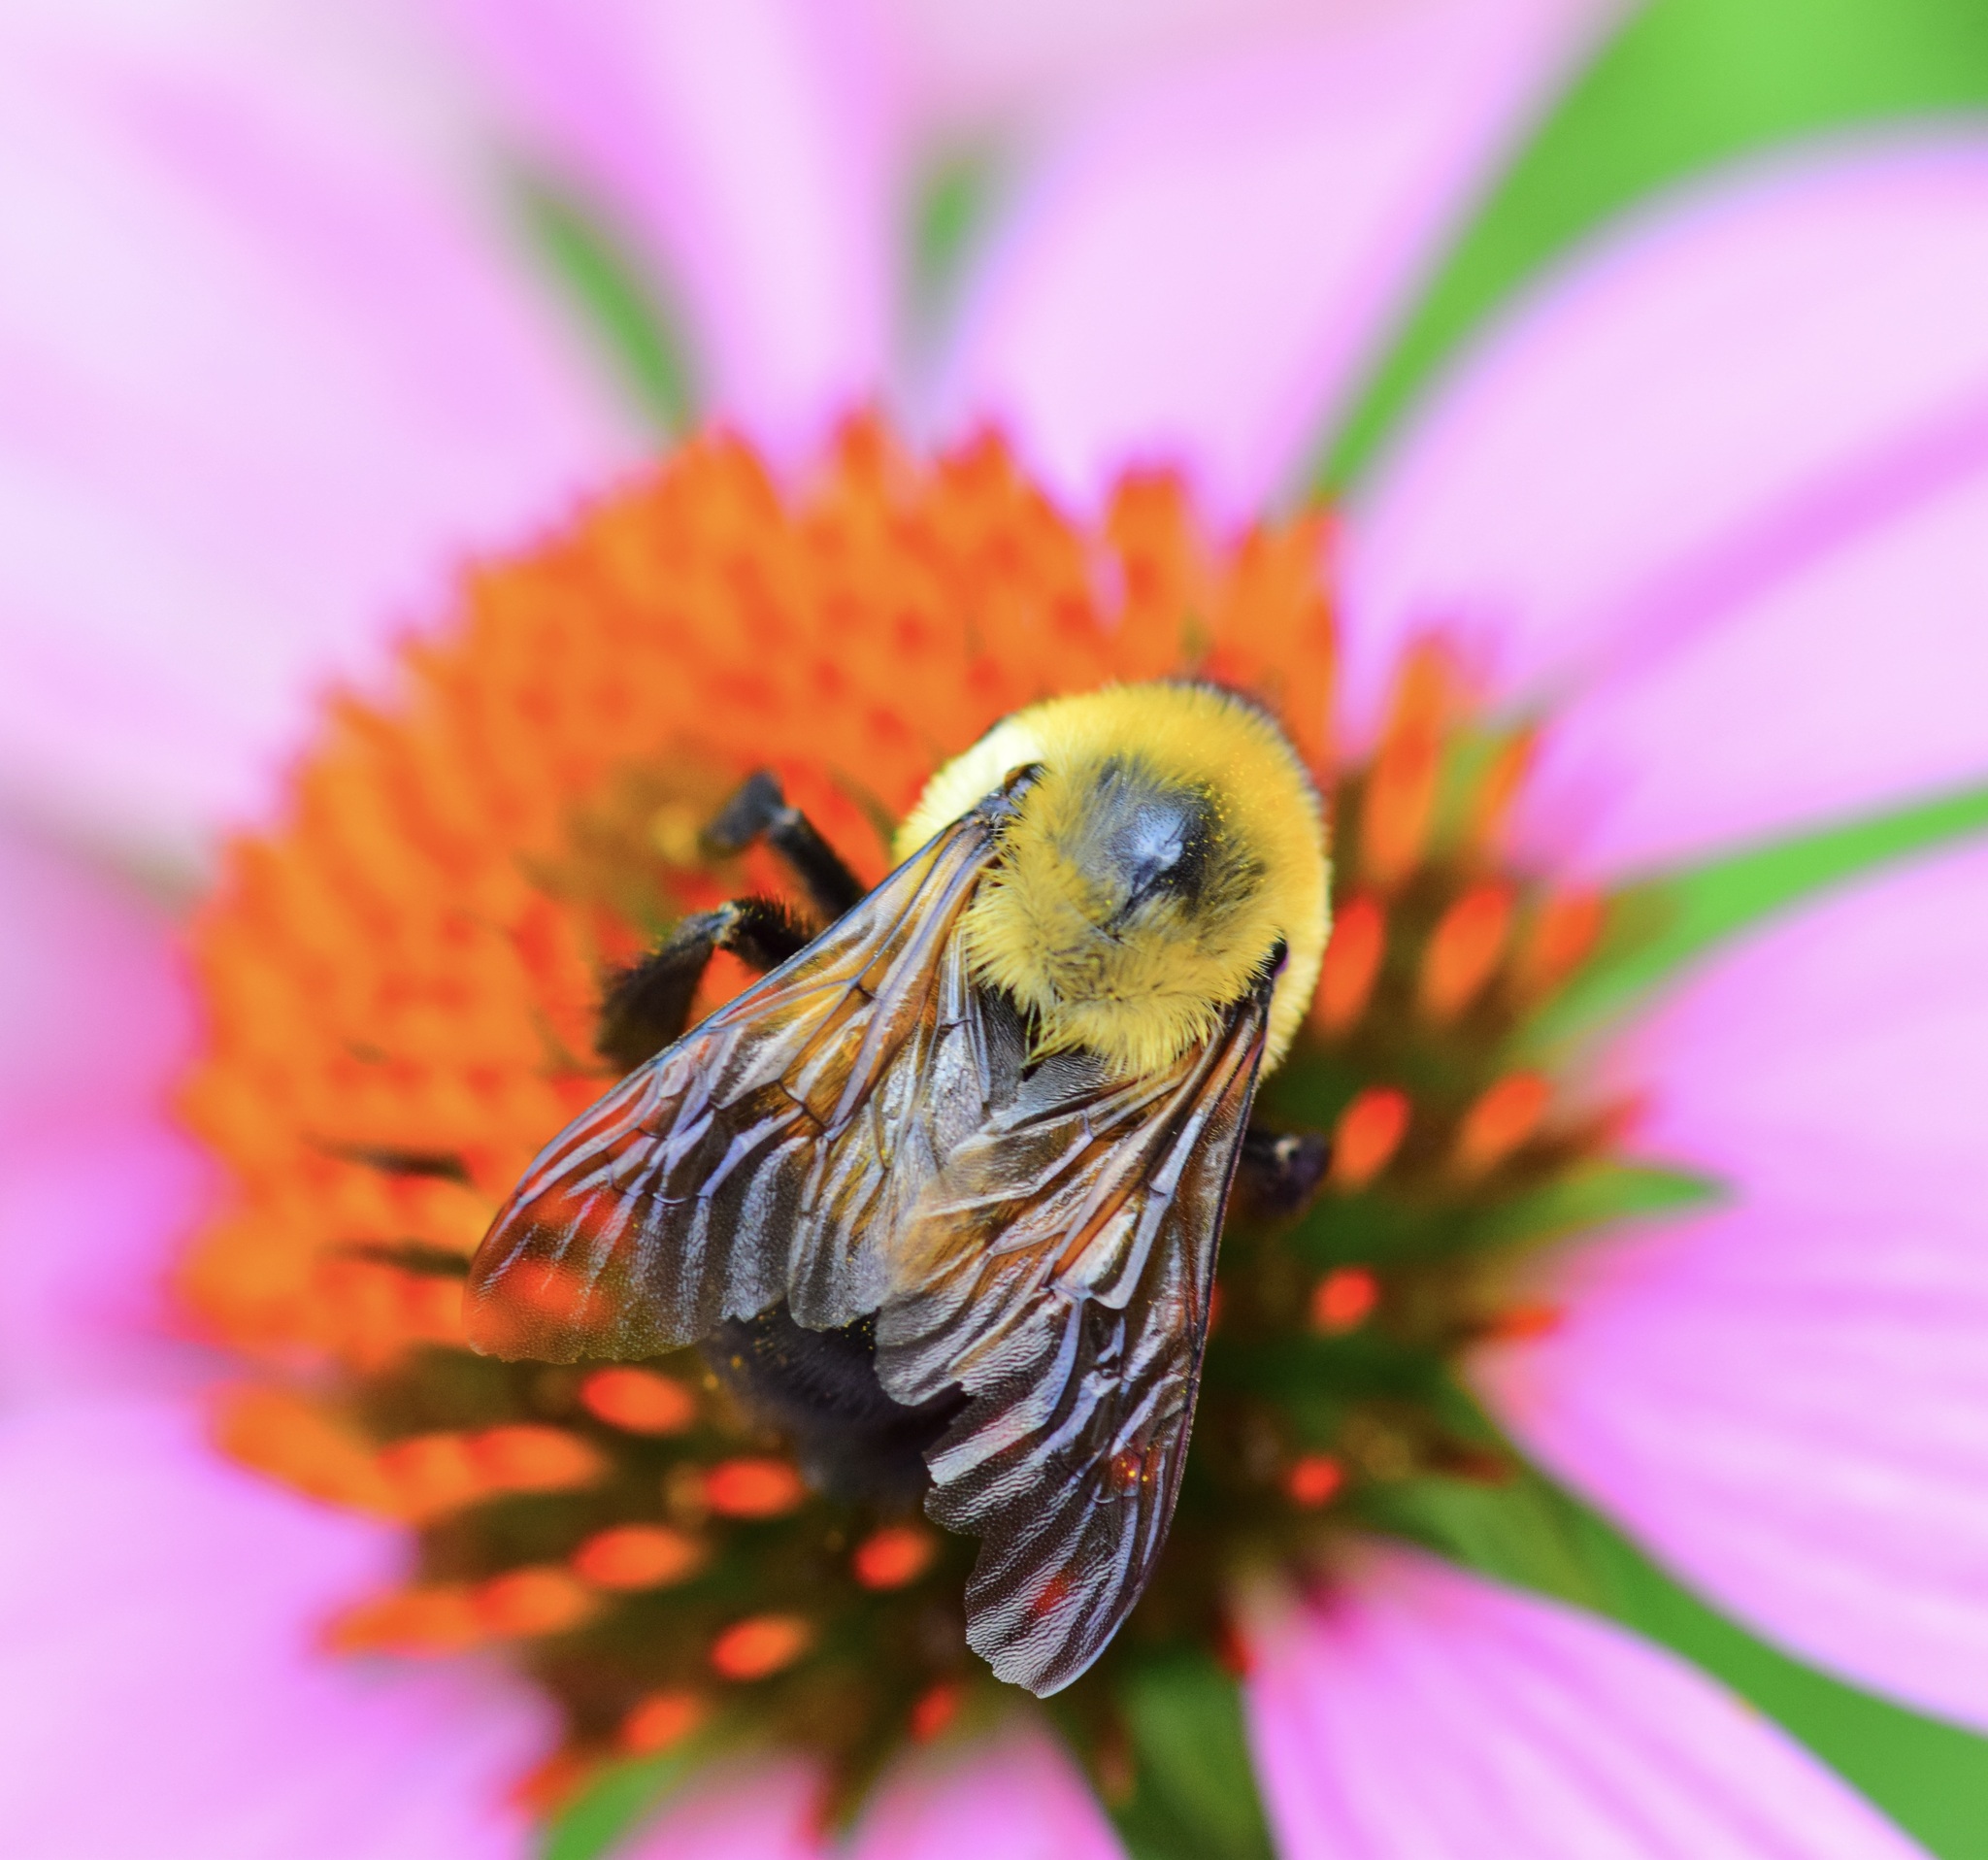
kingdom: Animalia
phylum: Arthropoda
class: Insecta
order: Hymenoptera
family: Apidae
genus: Bombus
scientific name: Bombus griseocollis
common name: Brown-belted bumble bee
